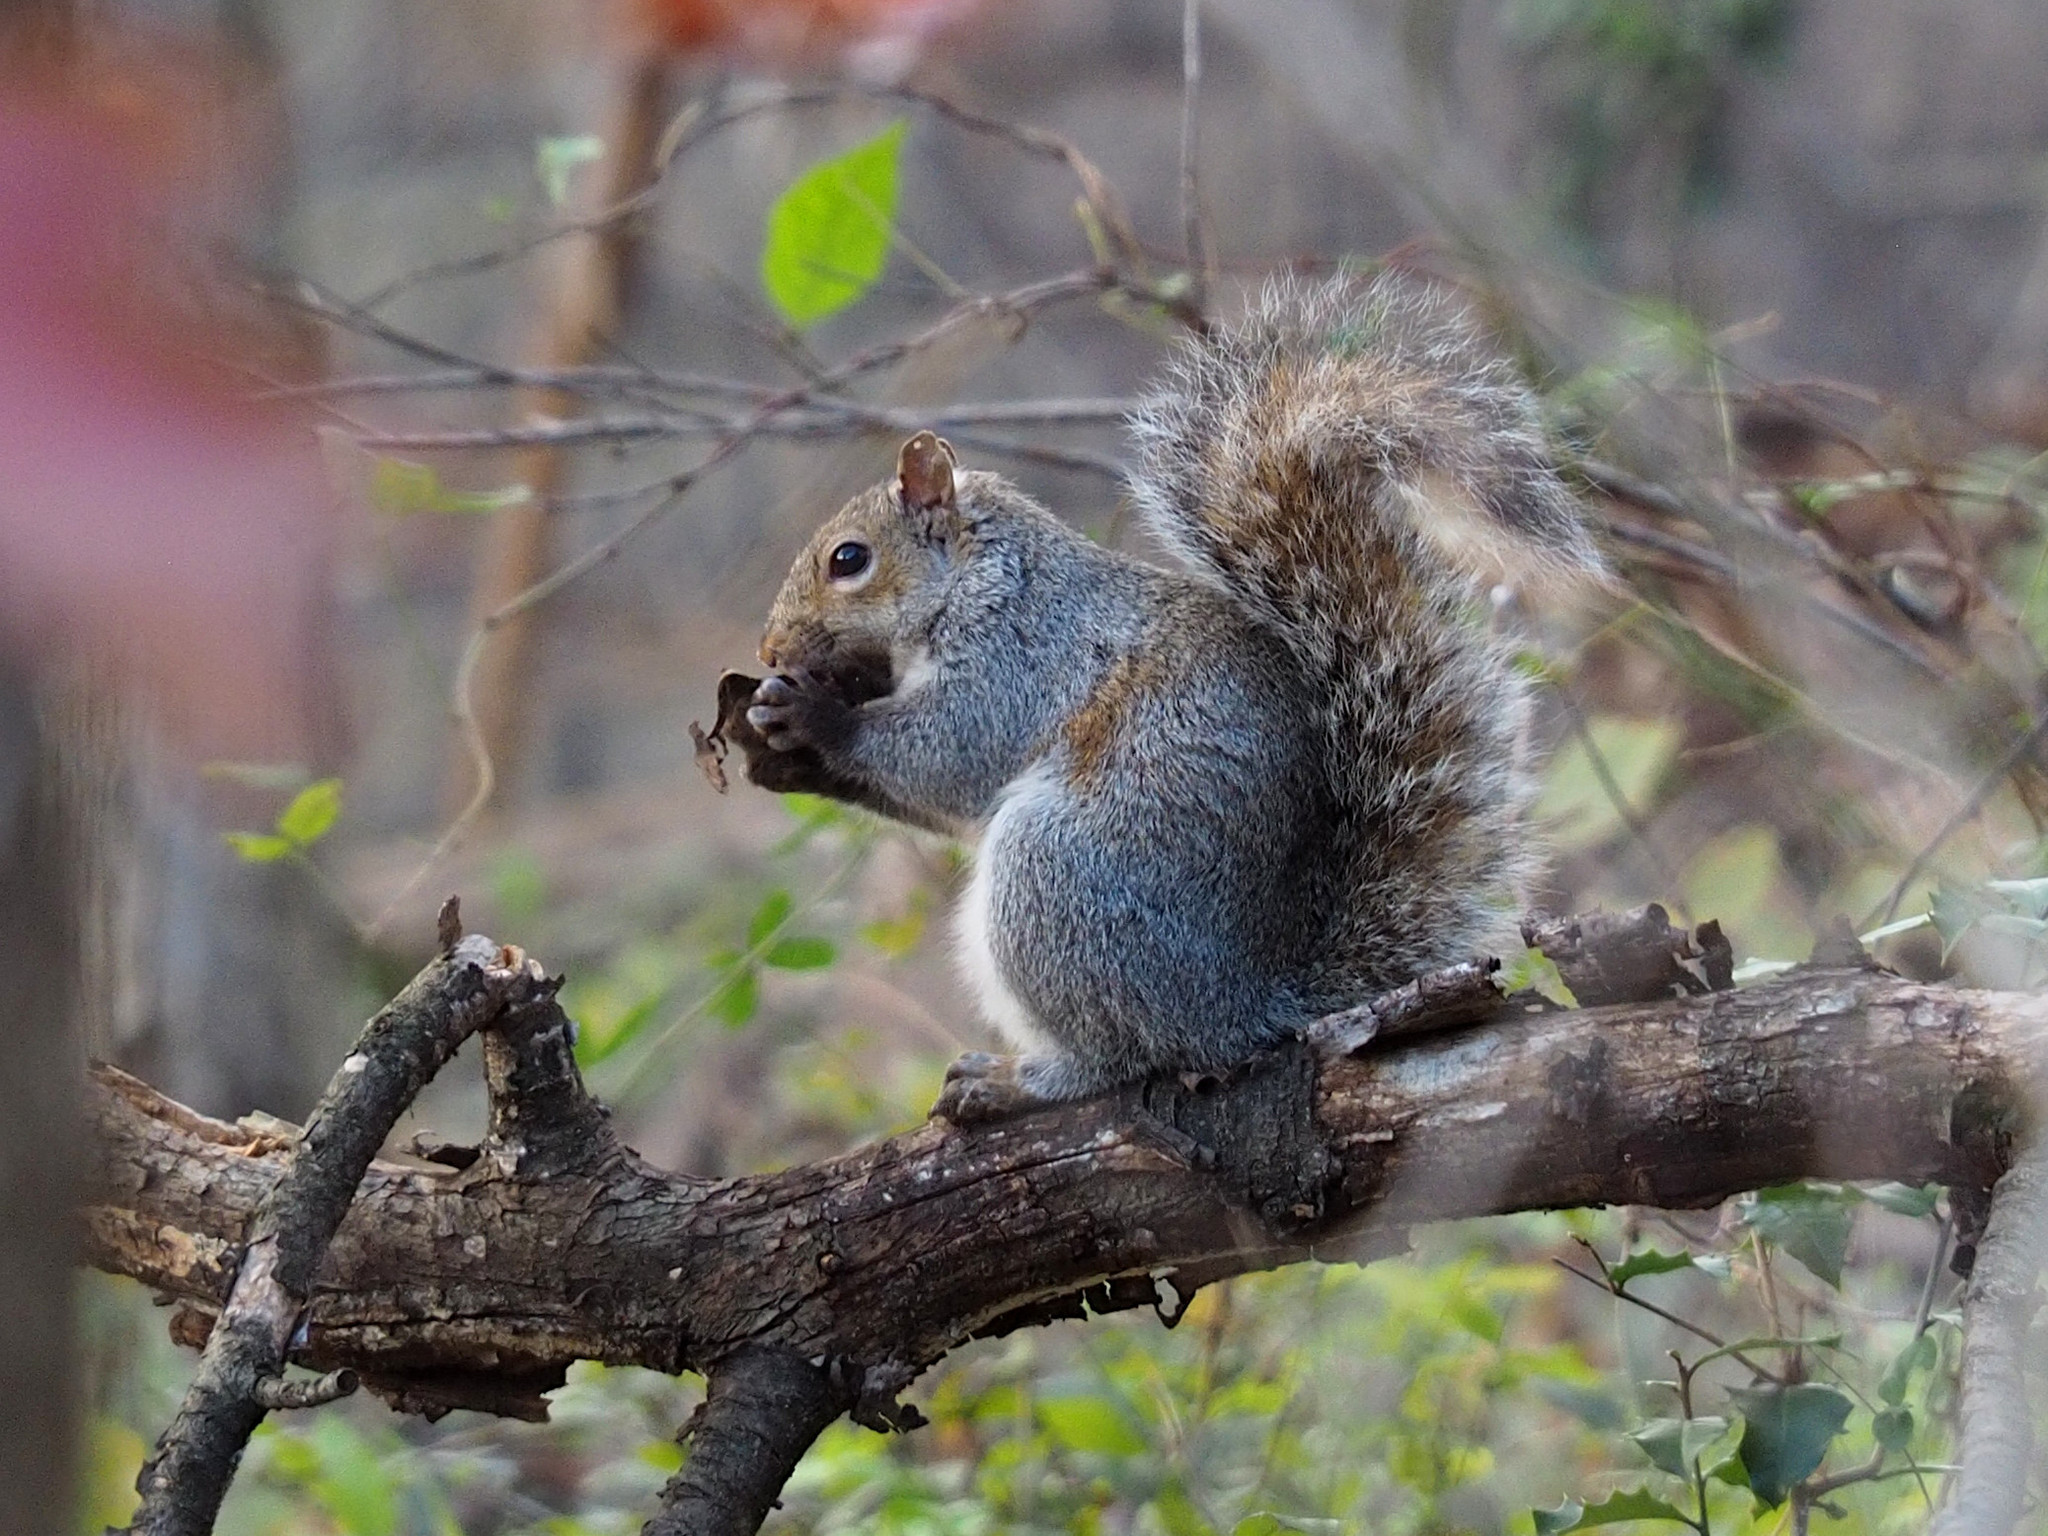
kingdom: Animalia
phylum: Chordata
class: Mammalia
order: Rodentia
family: Sciuridae
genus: Sciurus
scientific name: Sciurus carolinensis
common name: Eastern gray squirrel
